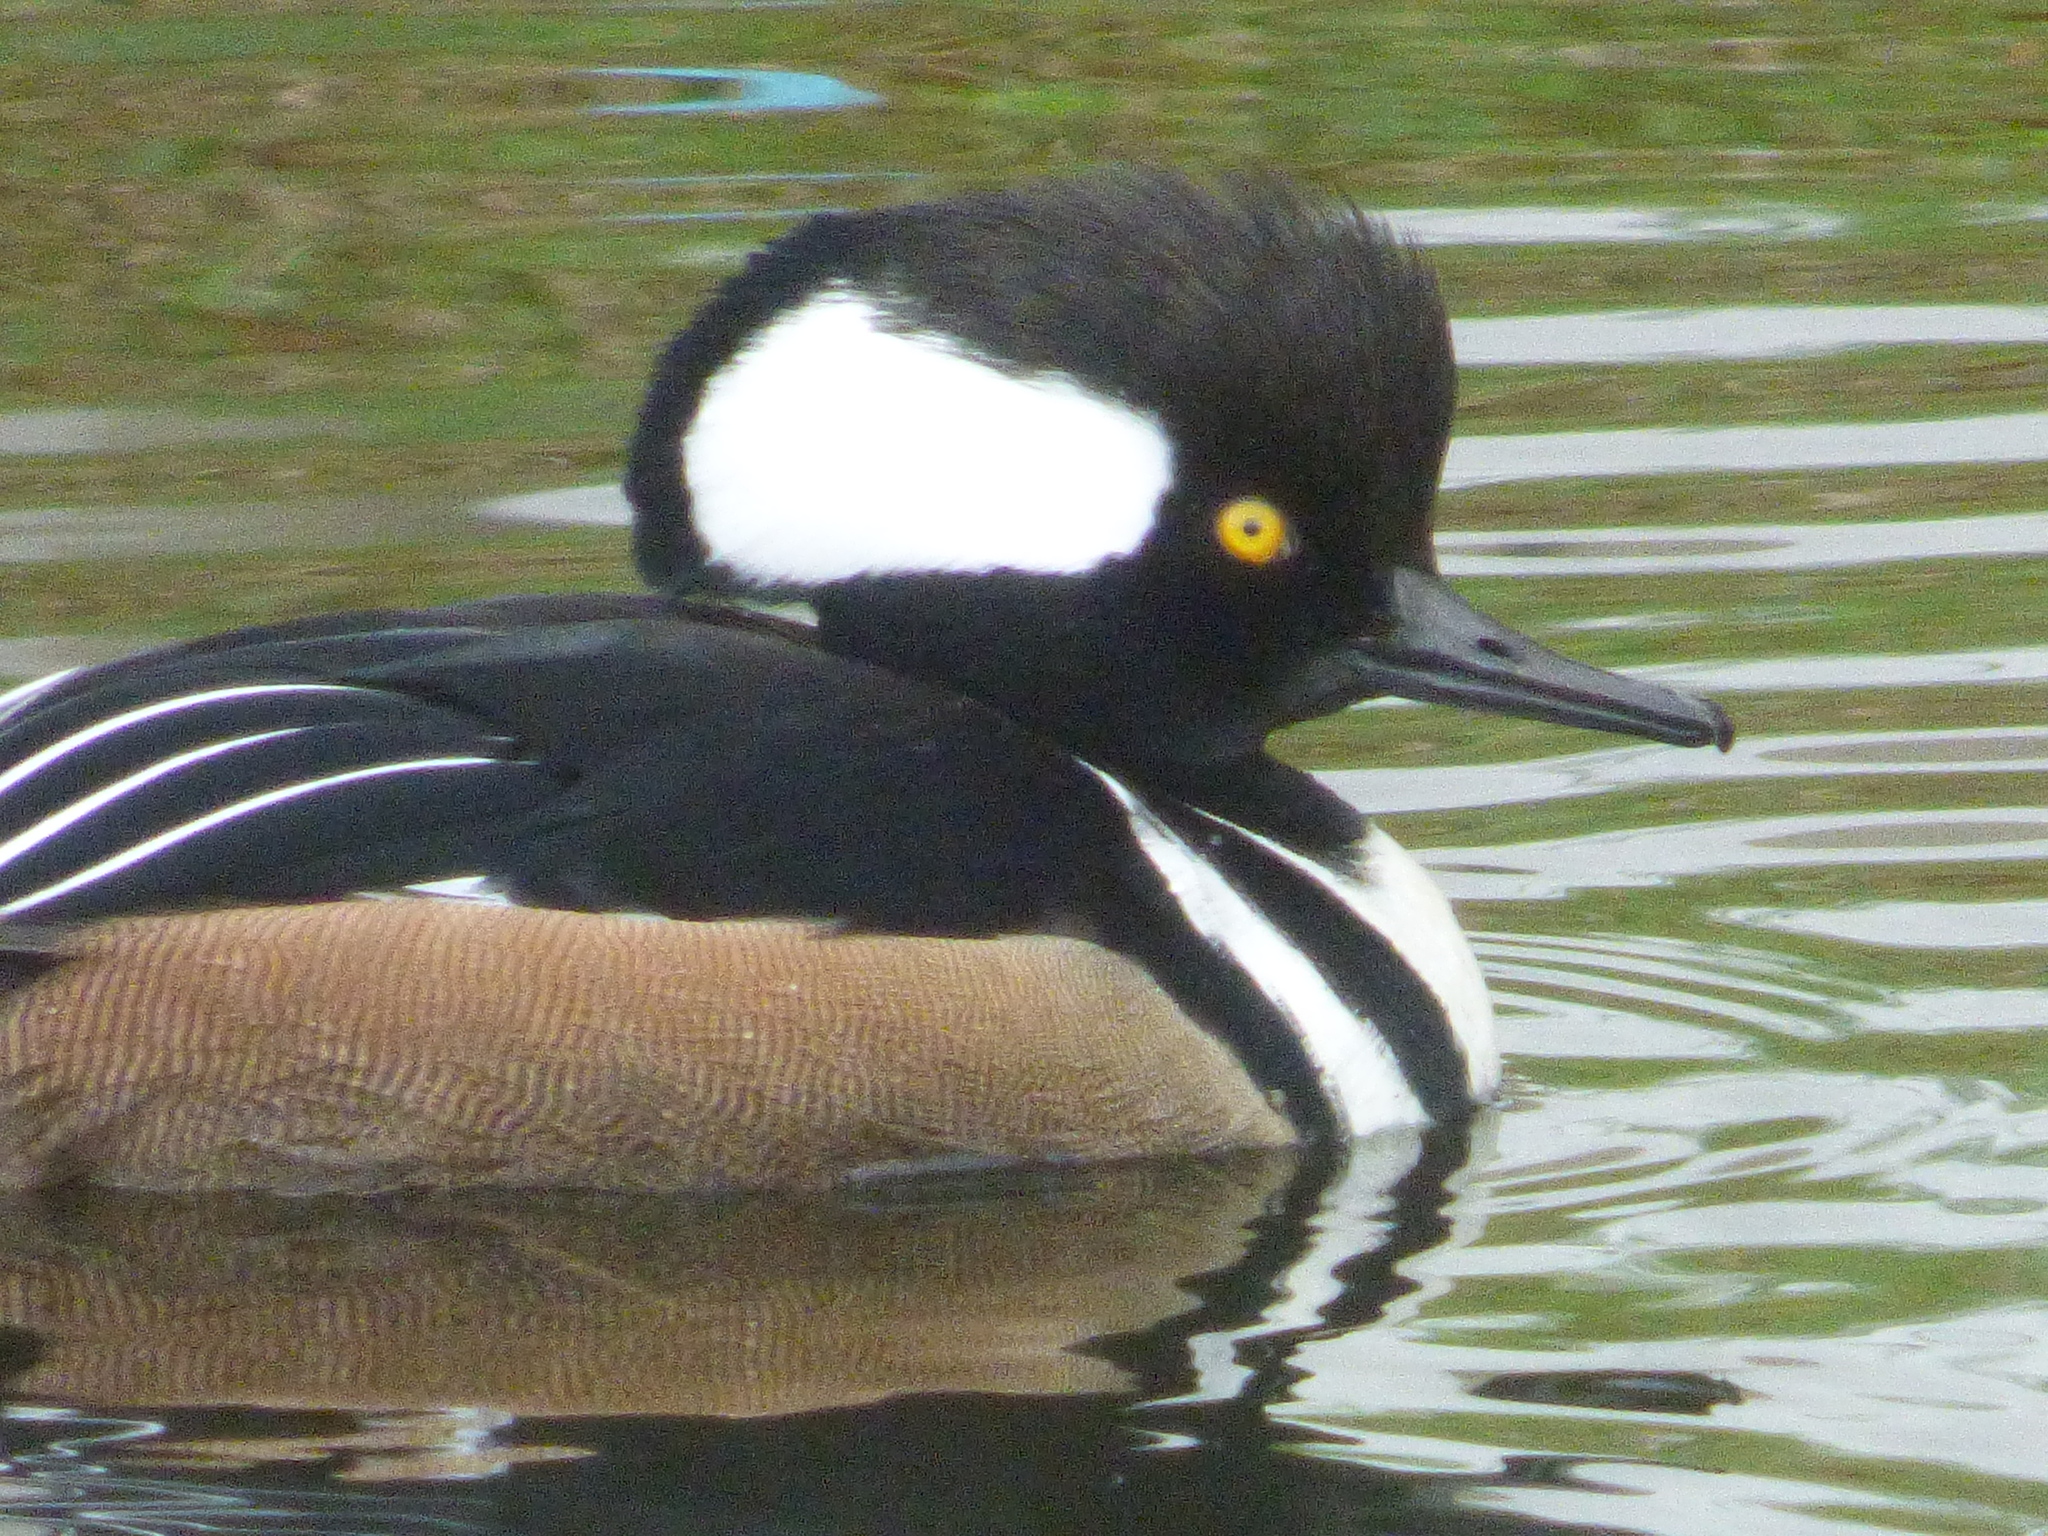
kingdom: Animalia
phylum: Chordata
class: Aves
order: Anseriformes
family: Anatidae
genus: Lophodytes
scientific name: Lophodytes cucullatus
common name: Hooded merganser
